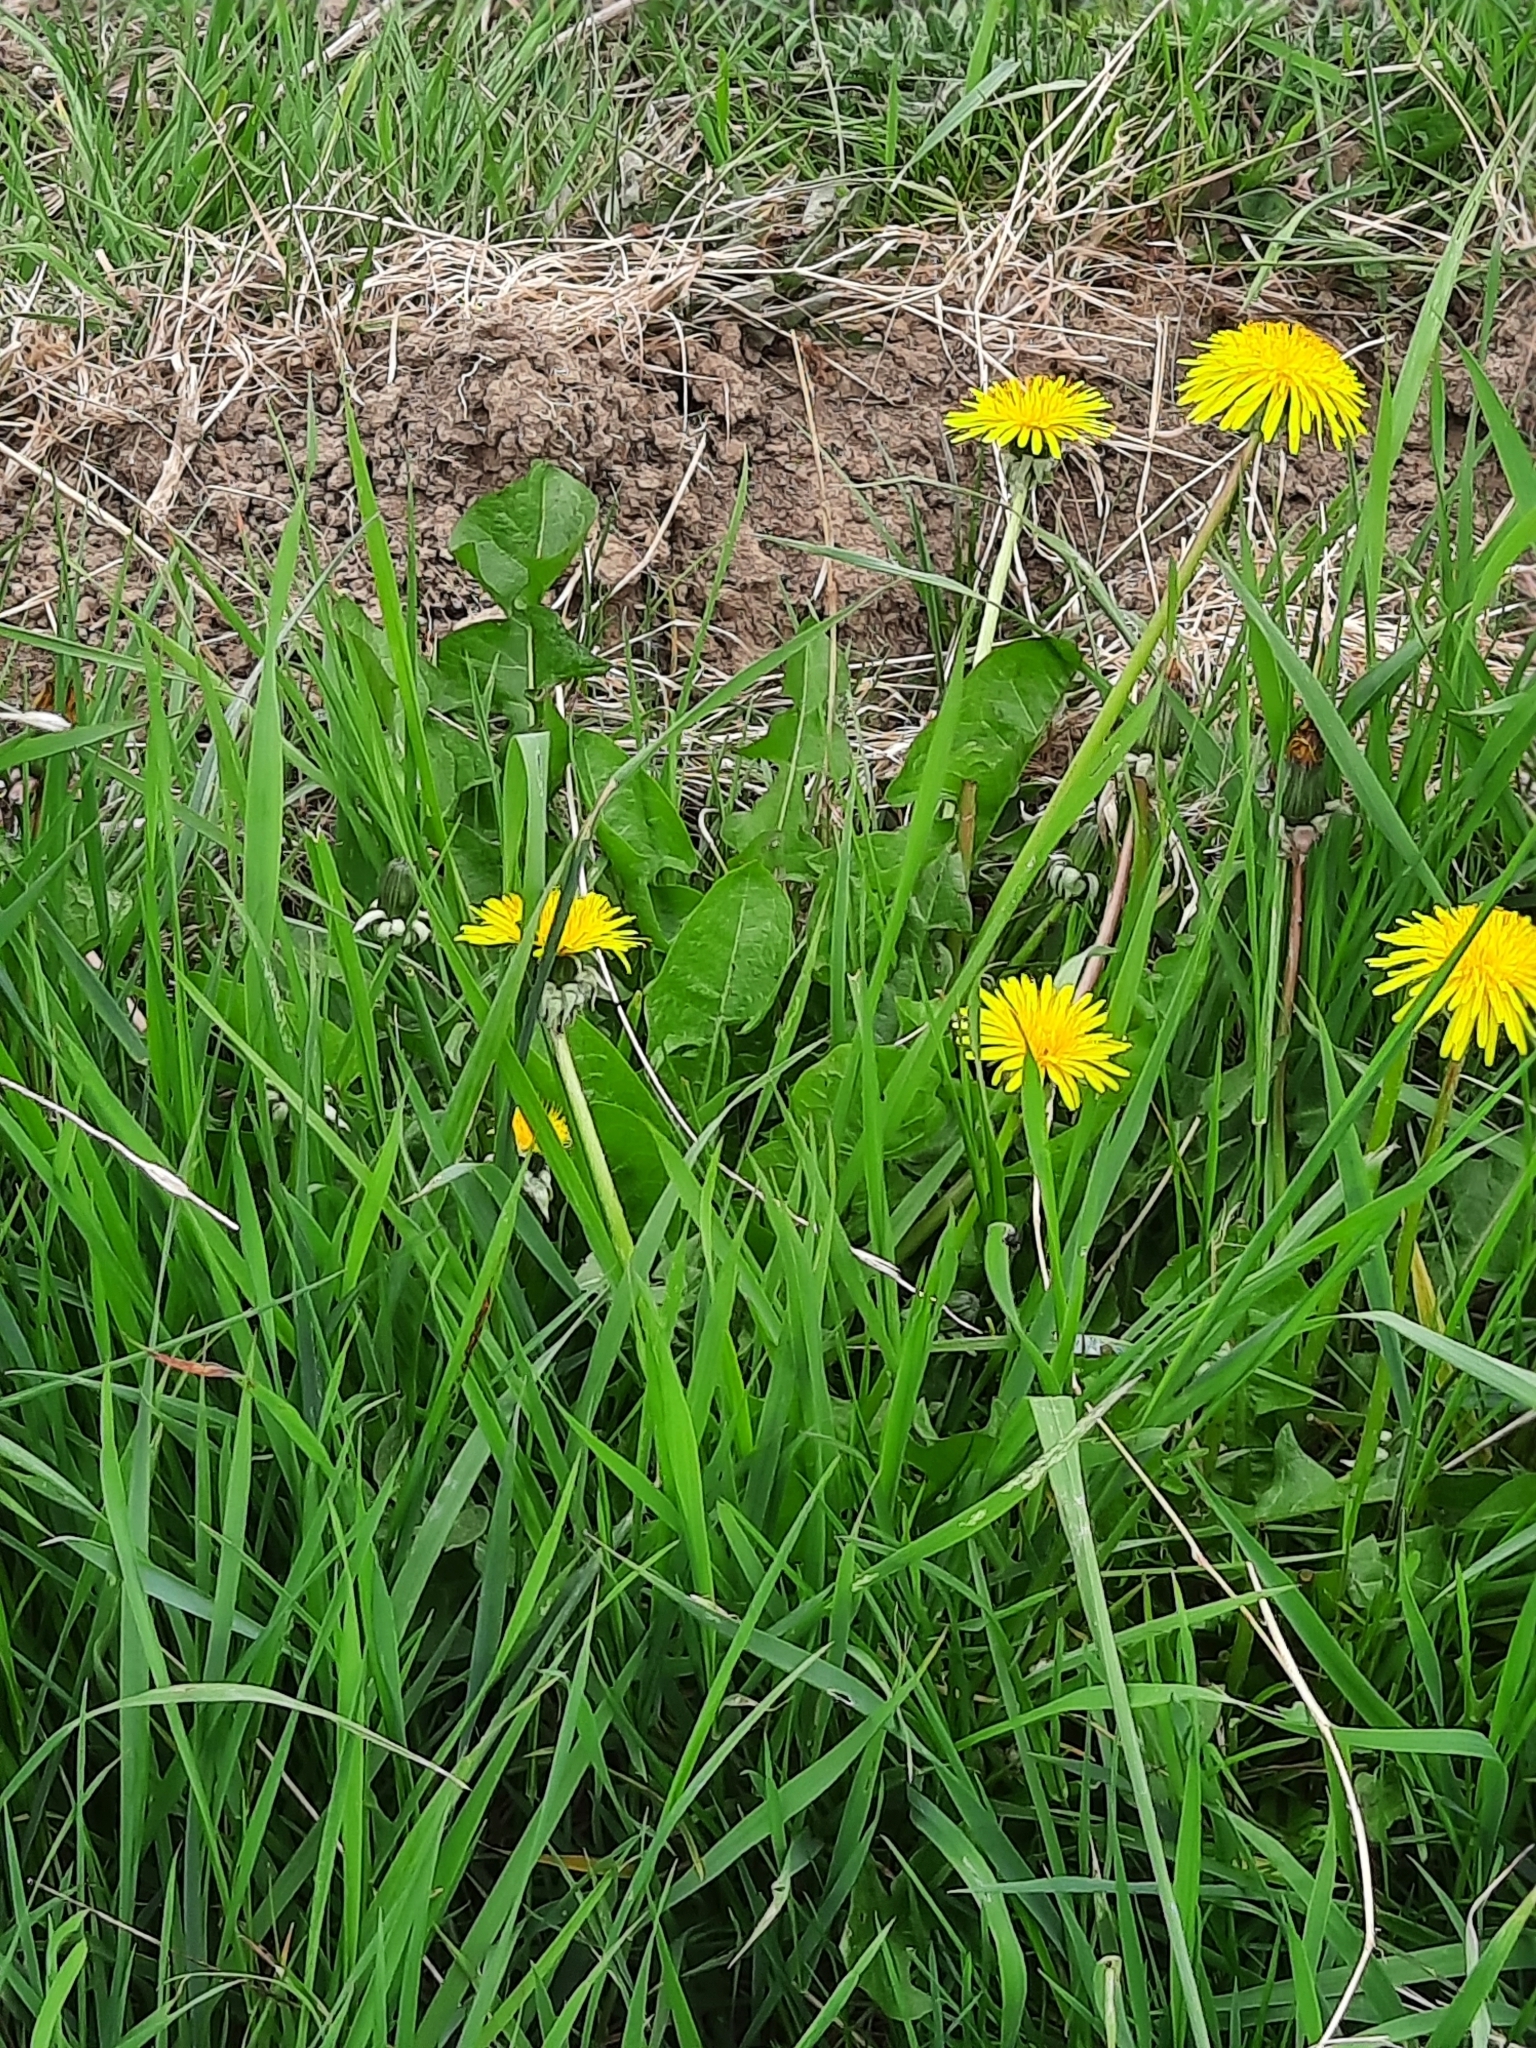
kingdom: Plantae
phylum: Tracheophyta
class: Magnoliopsida
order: Asterales
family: Asteraceae
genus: Taraxacum
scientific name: Taraxacum officinale
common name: Common dandelion
